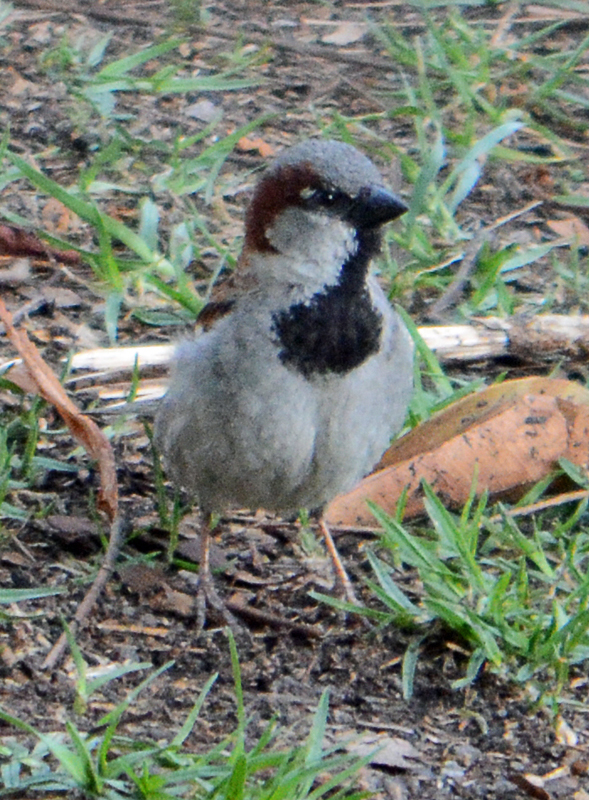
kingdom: Animalia
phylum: Chordata
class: Aves
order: Passeriformes
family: Passeridae
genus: Passer
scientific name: Passer domesticus
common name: House sparrow
